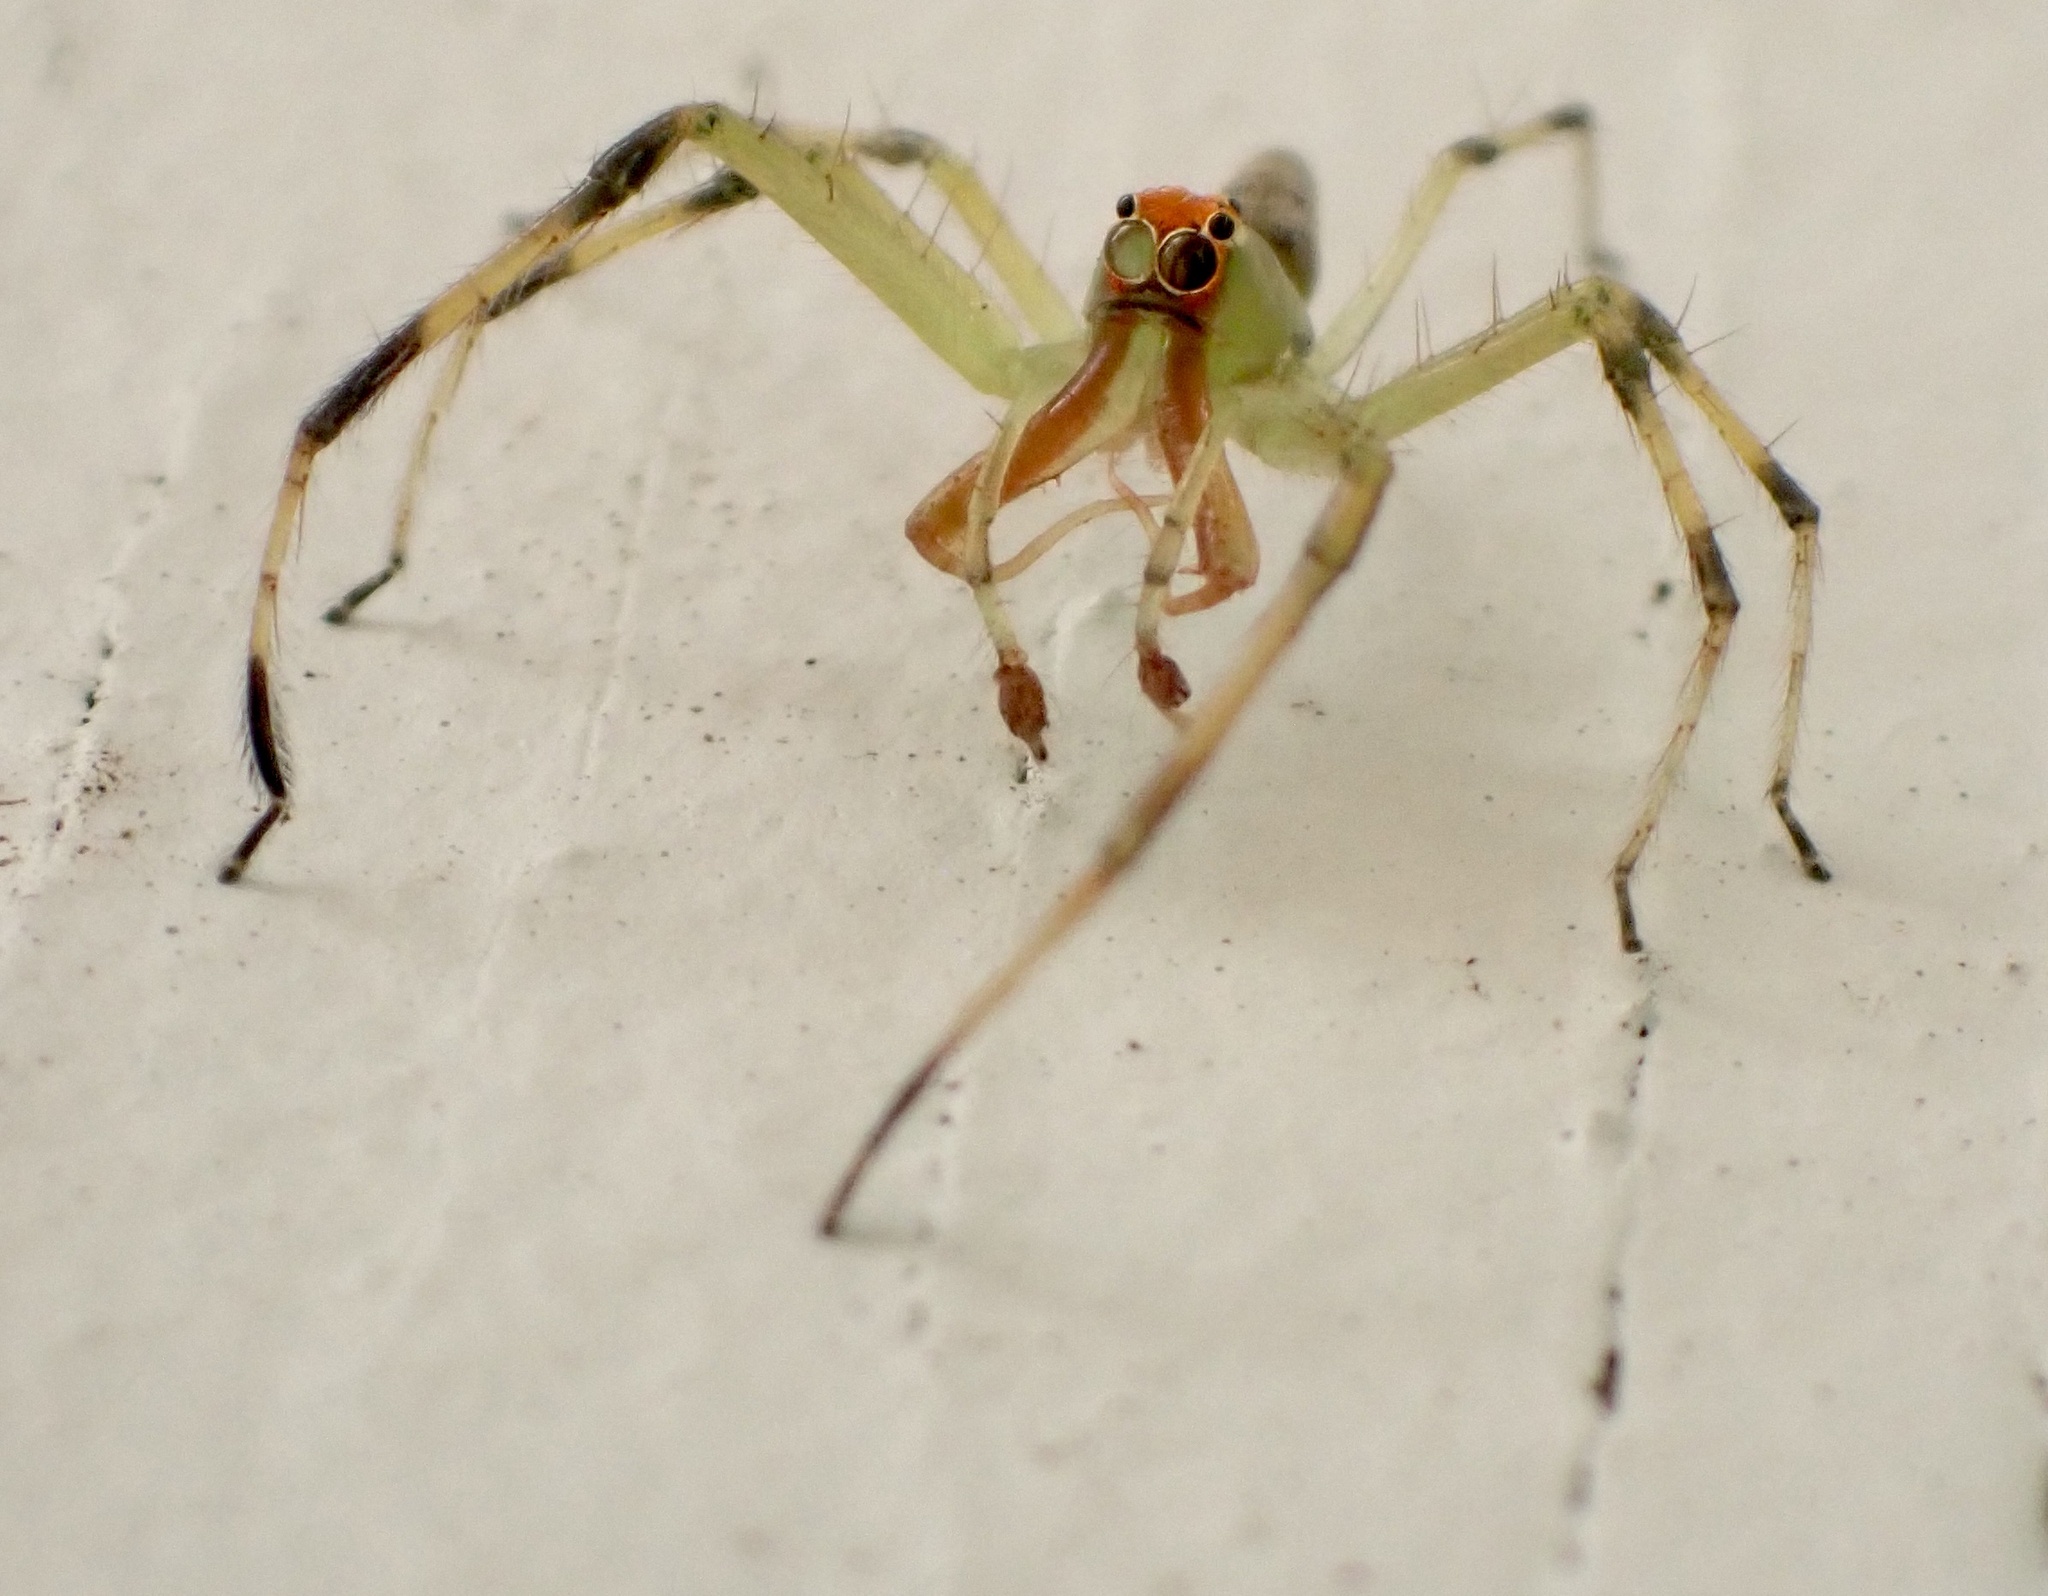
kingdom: Animalia
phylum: Arthropoda
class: Arachnida
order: Araneae
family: Salticidae
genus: Lyssomanes
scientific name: Lyssomanes viridis
